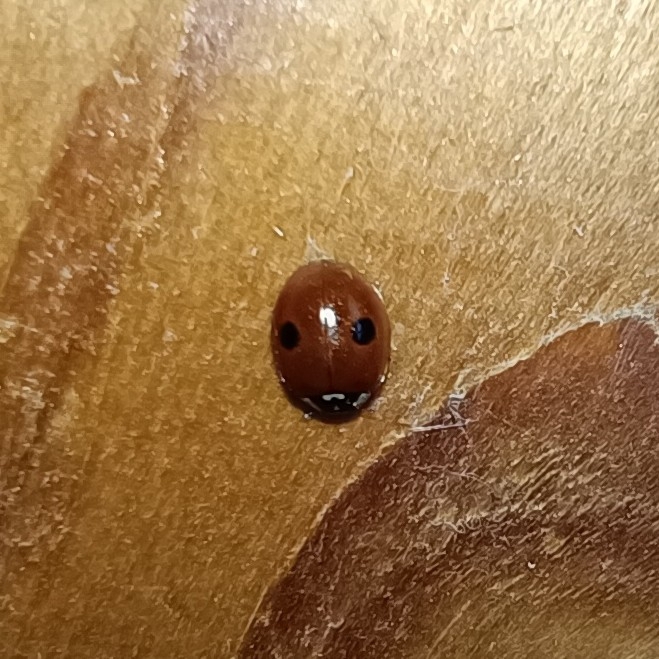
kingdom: Animalia
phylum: Arthropoda
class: Insecta
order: Coleoptera
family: Coccinellidae
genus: Adalia
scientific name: Adalia bipunctata
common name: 2-spot ladybird
